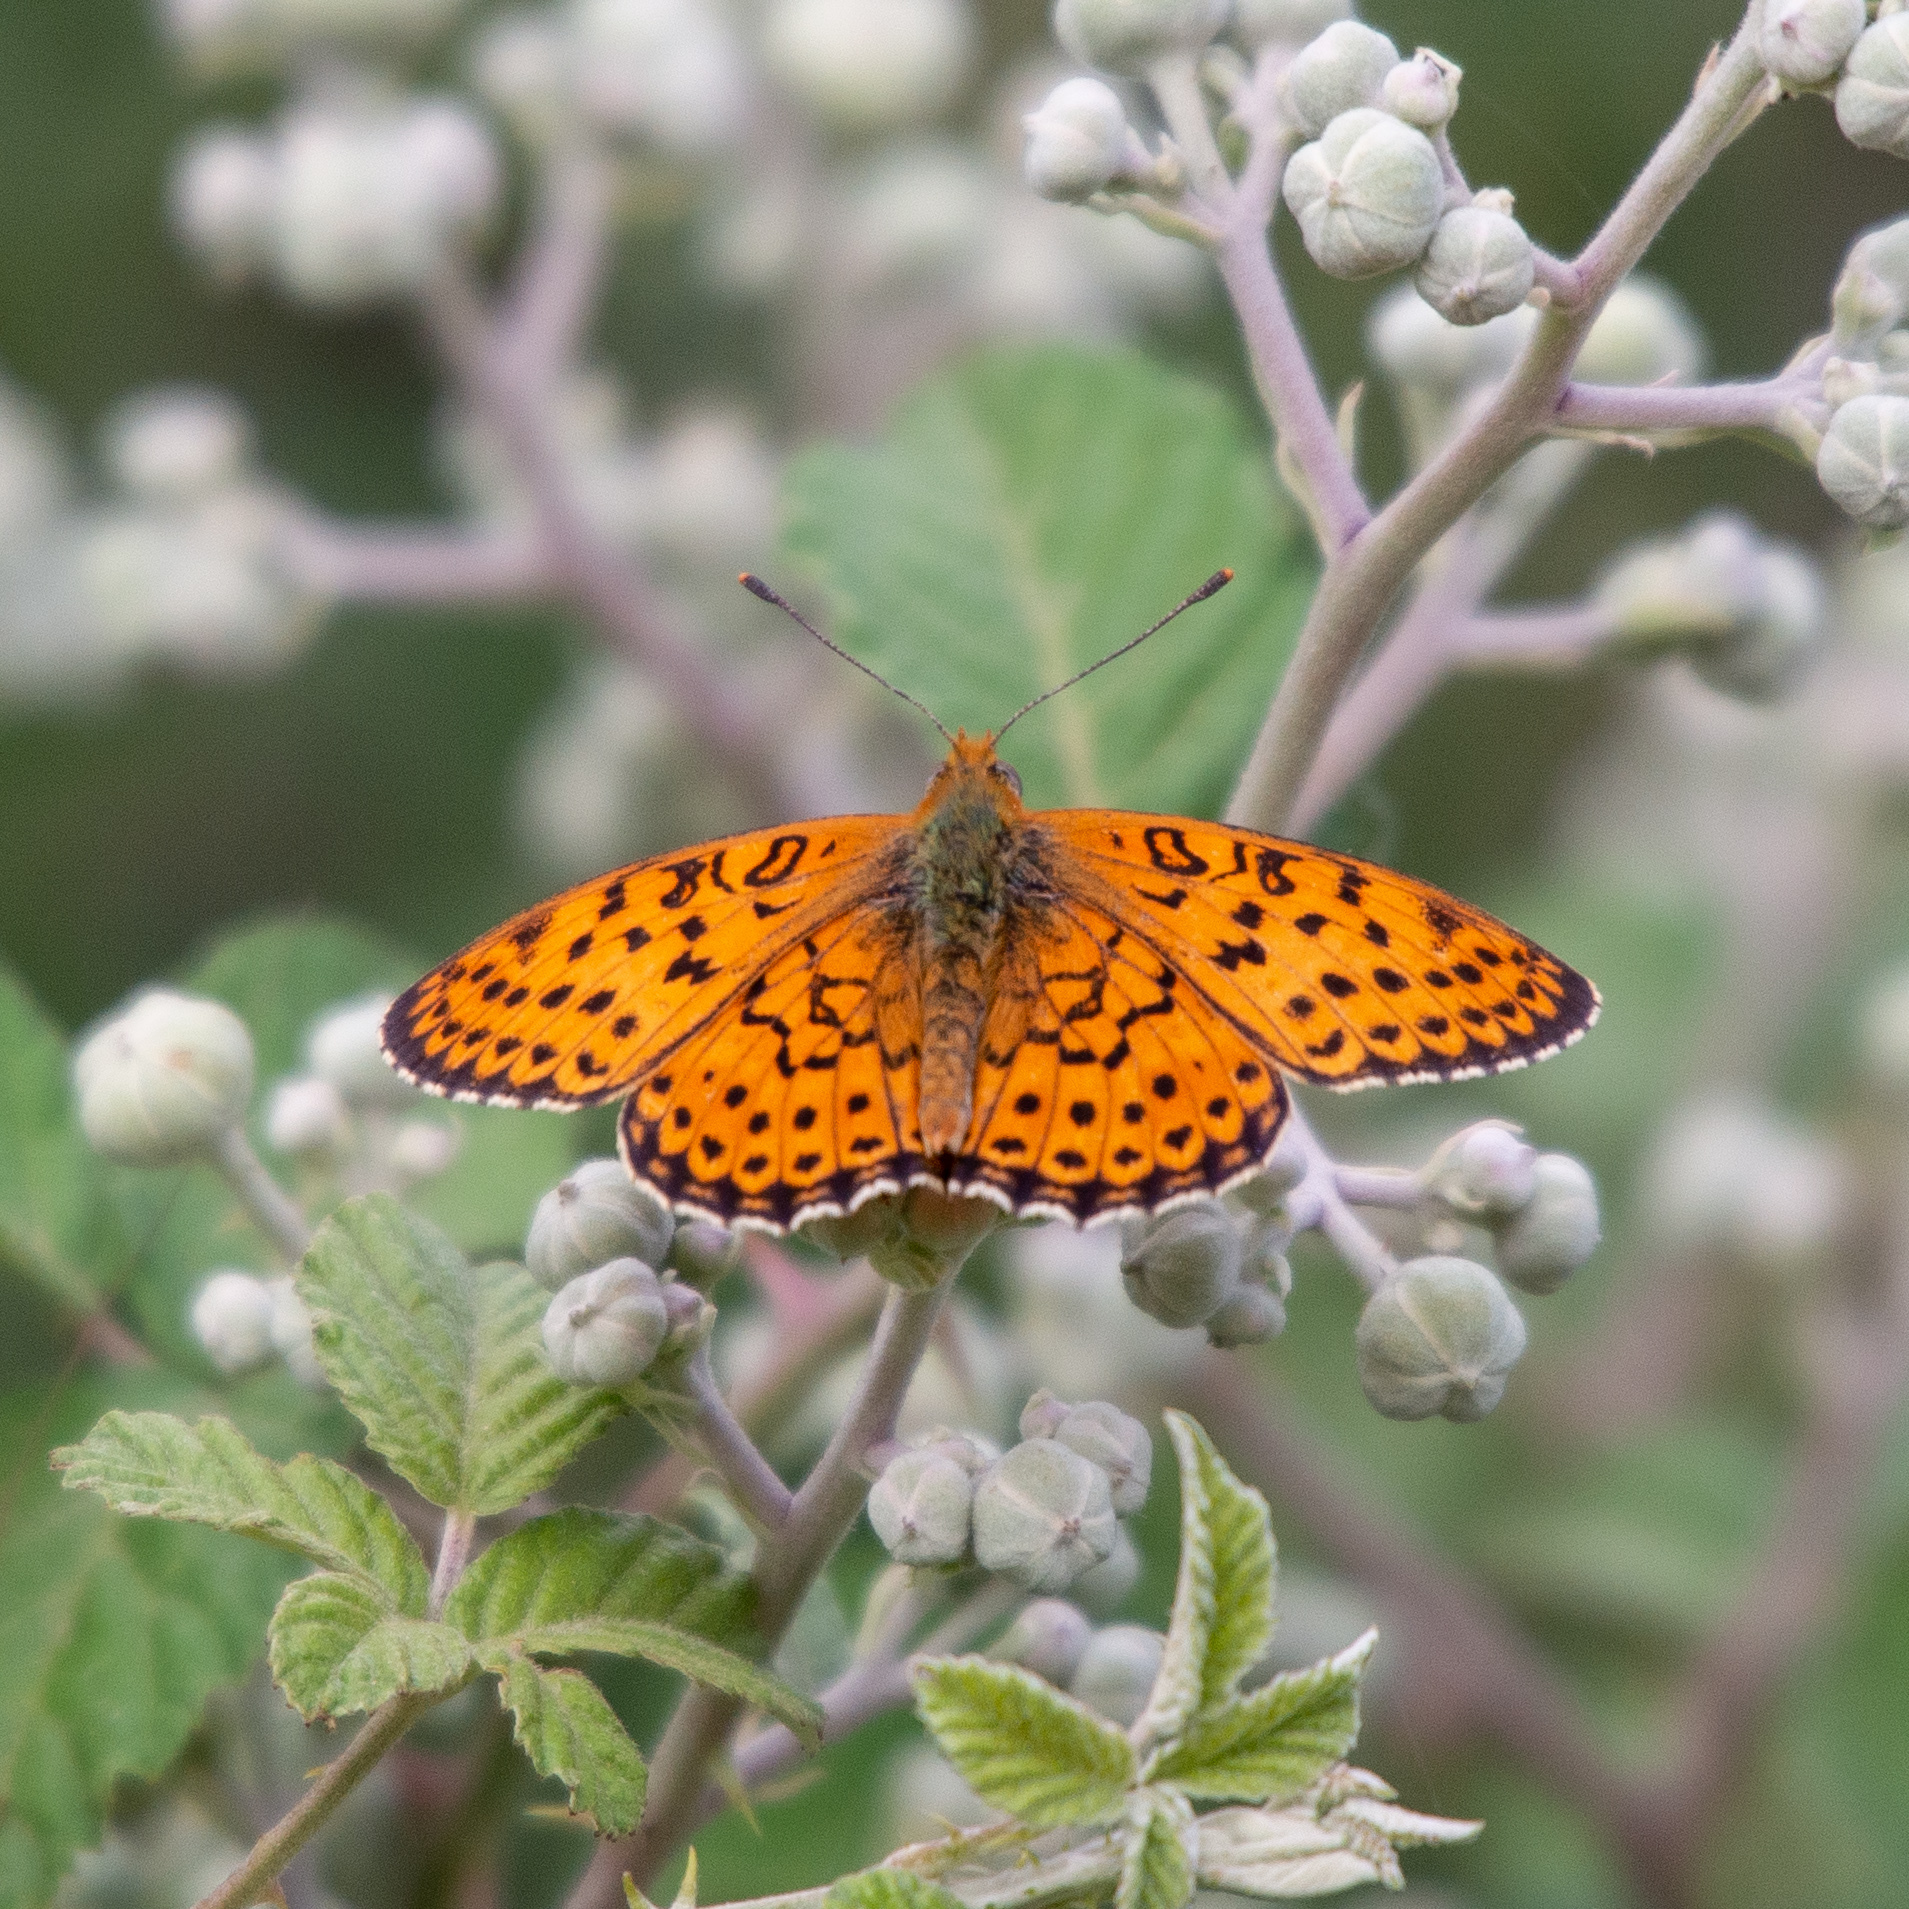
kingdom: Animalia
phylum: Arthropoda
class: Insecta
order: Lepidoptera
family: Nymphalidae
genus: Brenthis
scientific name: Brenthis hecate
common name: Twin-spot fritillary
